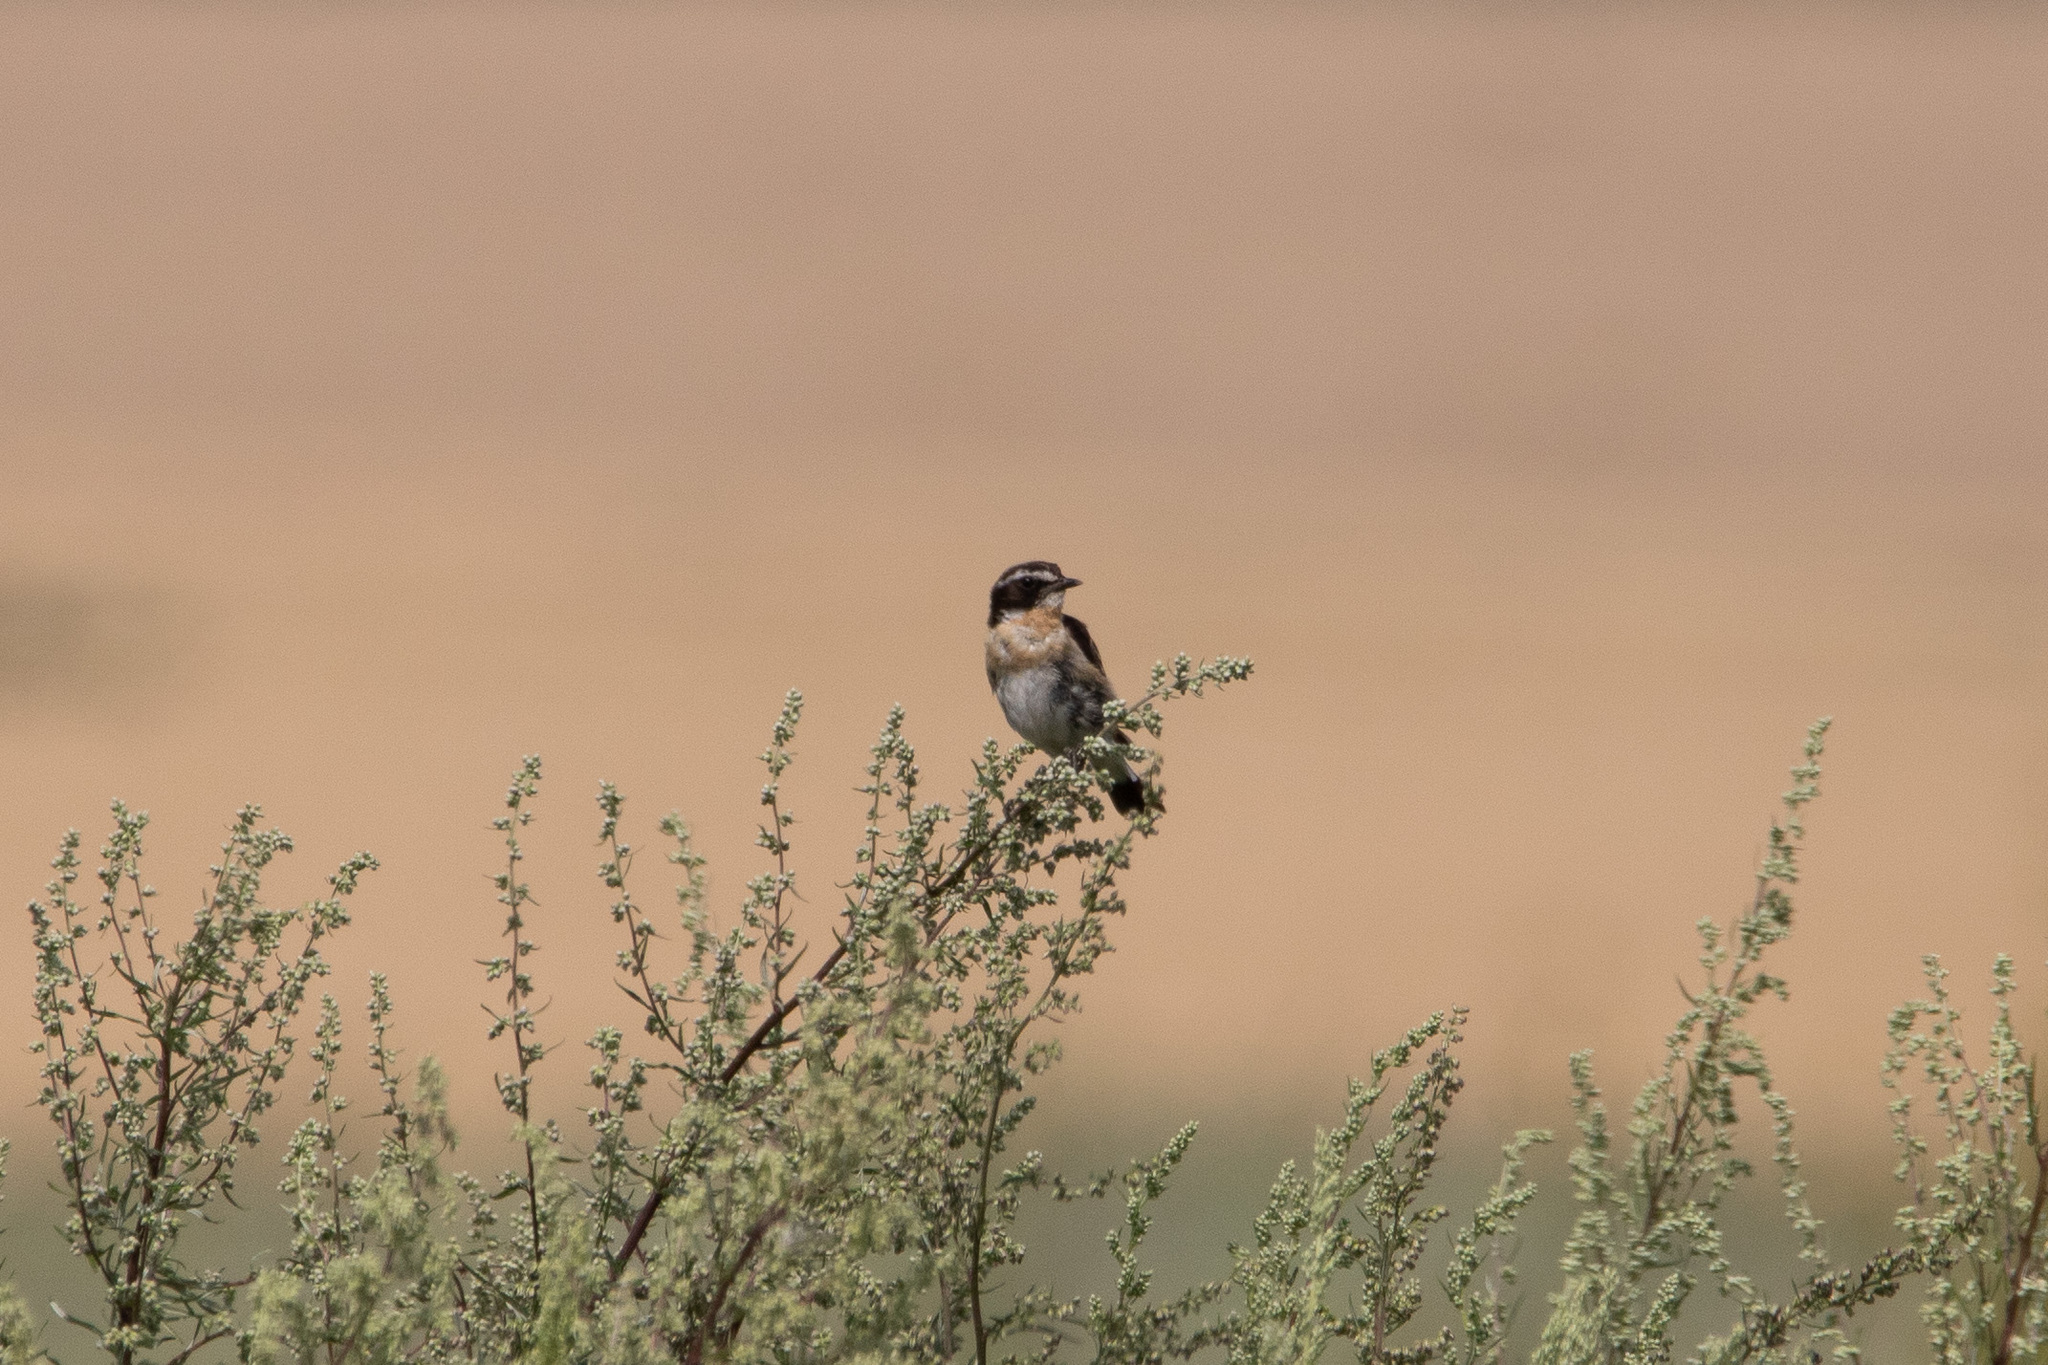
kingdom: Animalia
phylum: Chordata
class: Aves
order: Passeriformes
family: Muscicapidae
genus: Saxicola
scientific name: Saxicola rubetra
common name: Whinchat
